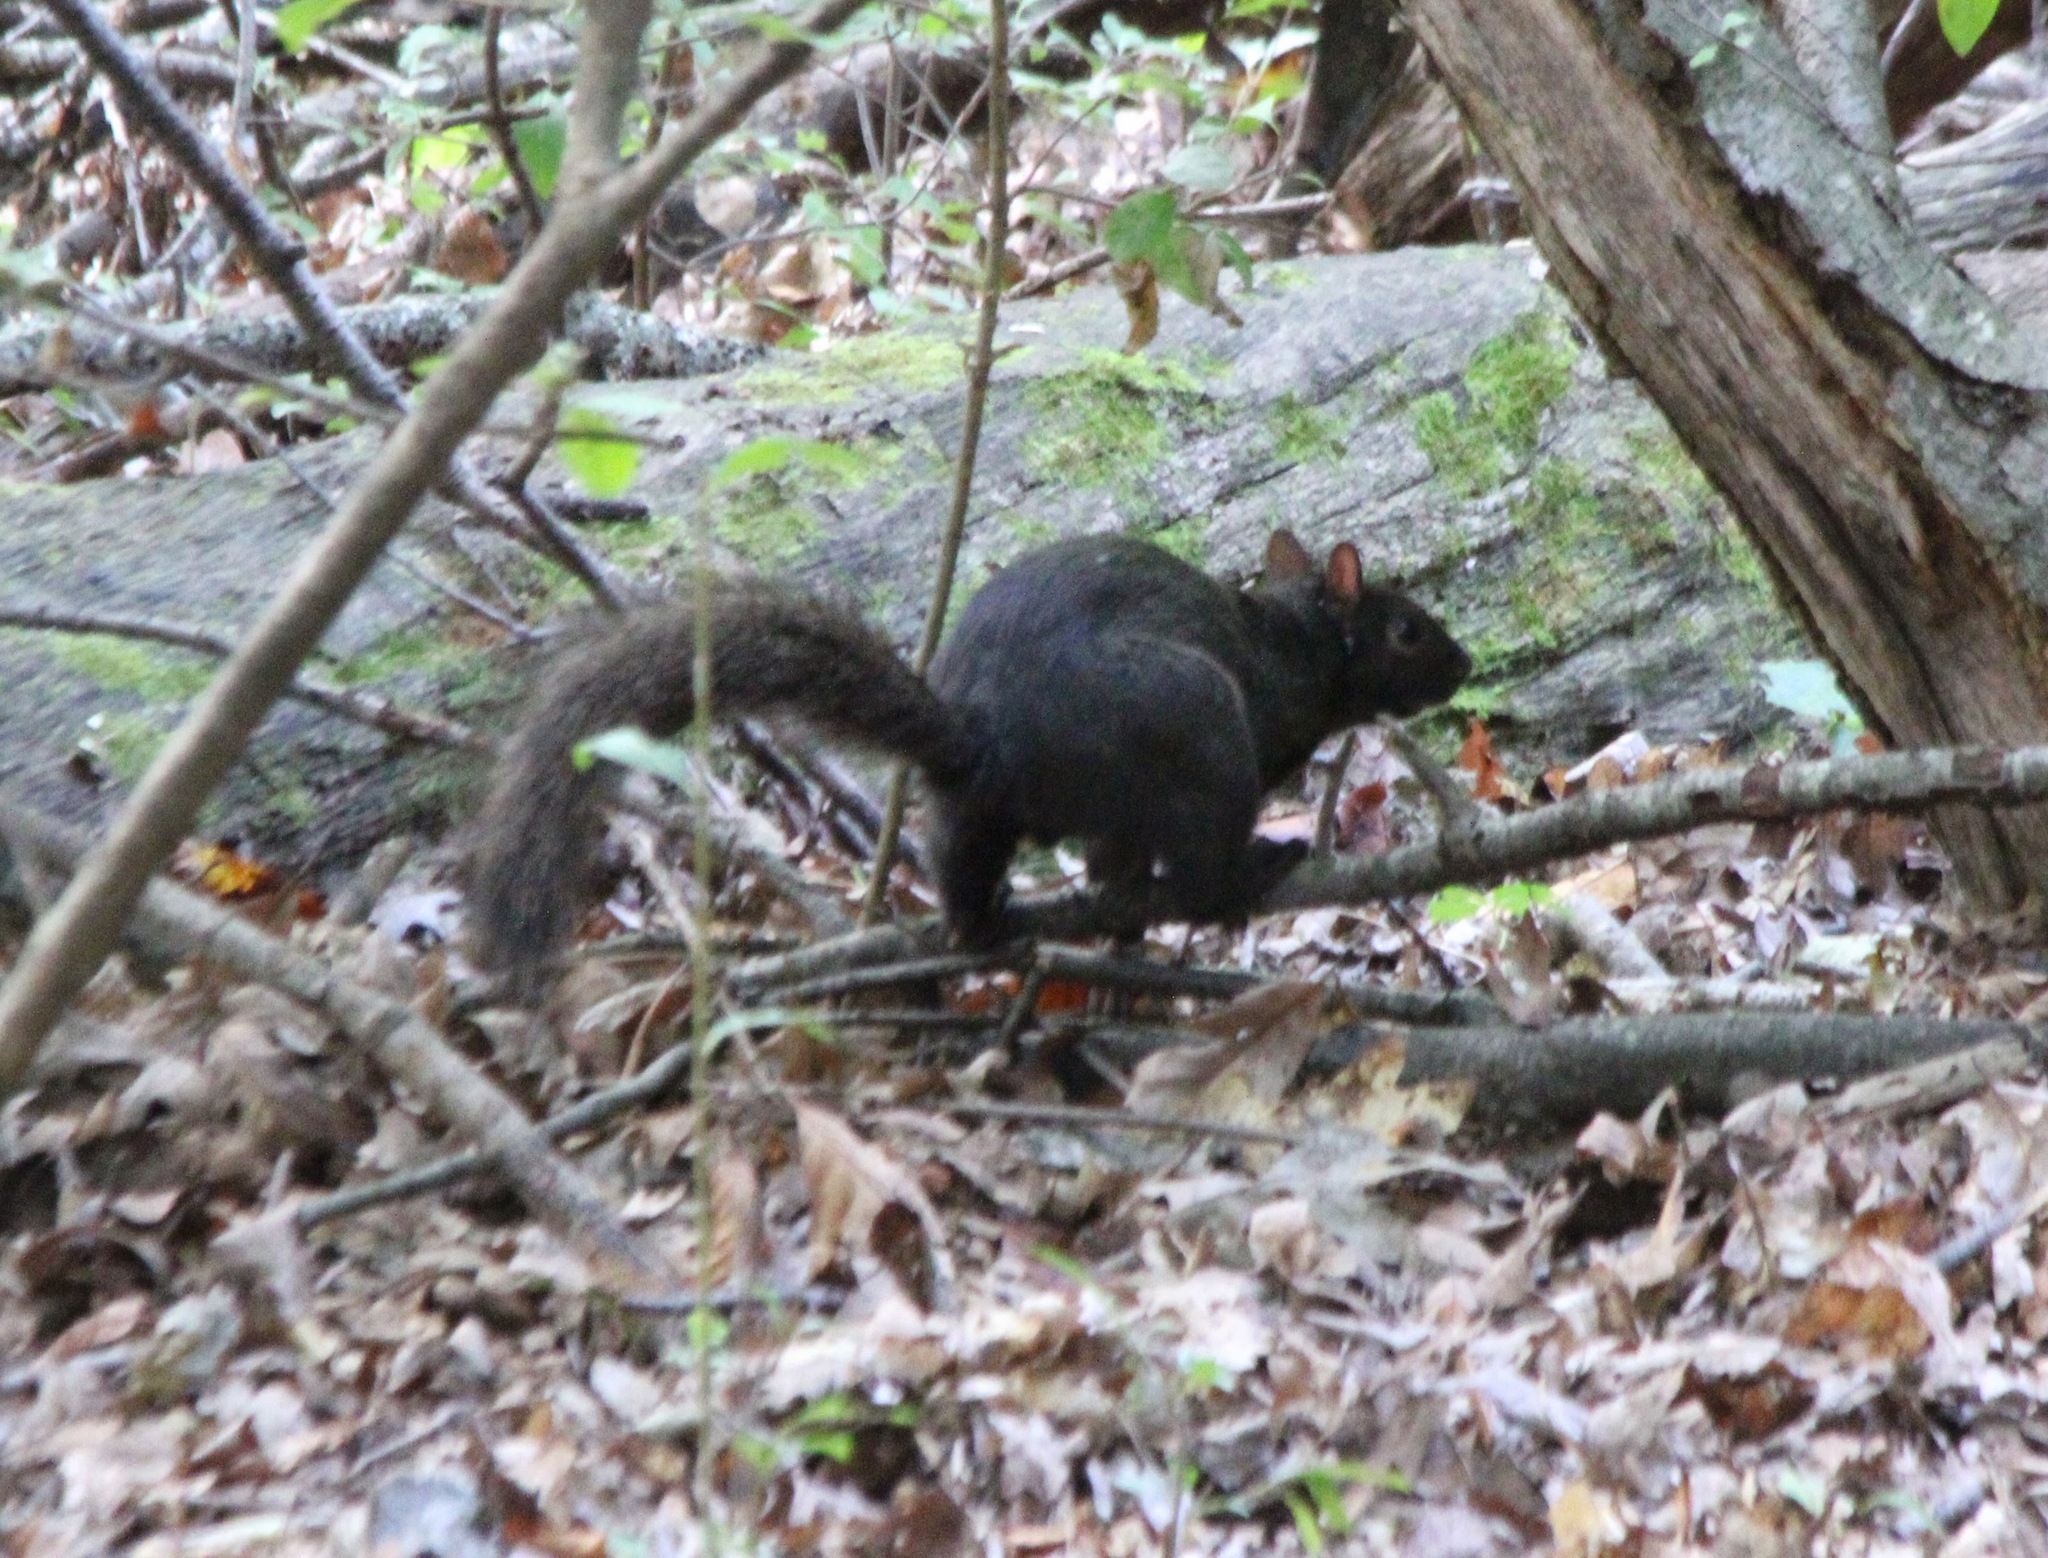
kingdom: Animalia
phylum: Chordata
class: Mammalia
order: Rodentia
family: Sciuridae
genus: Sciurus
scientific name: Sciurus carolinensis
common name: Eastern gray squirrel
